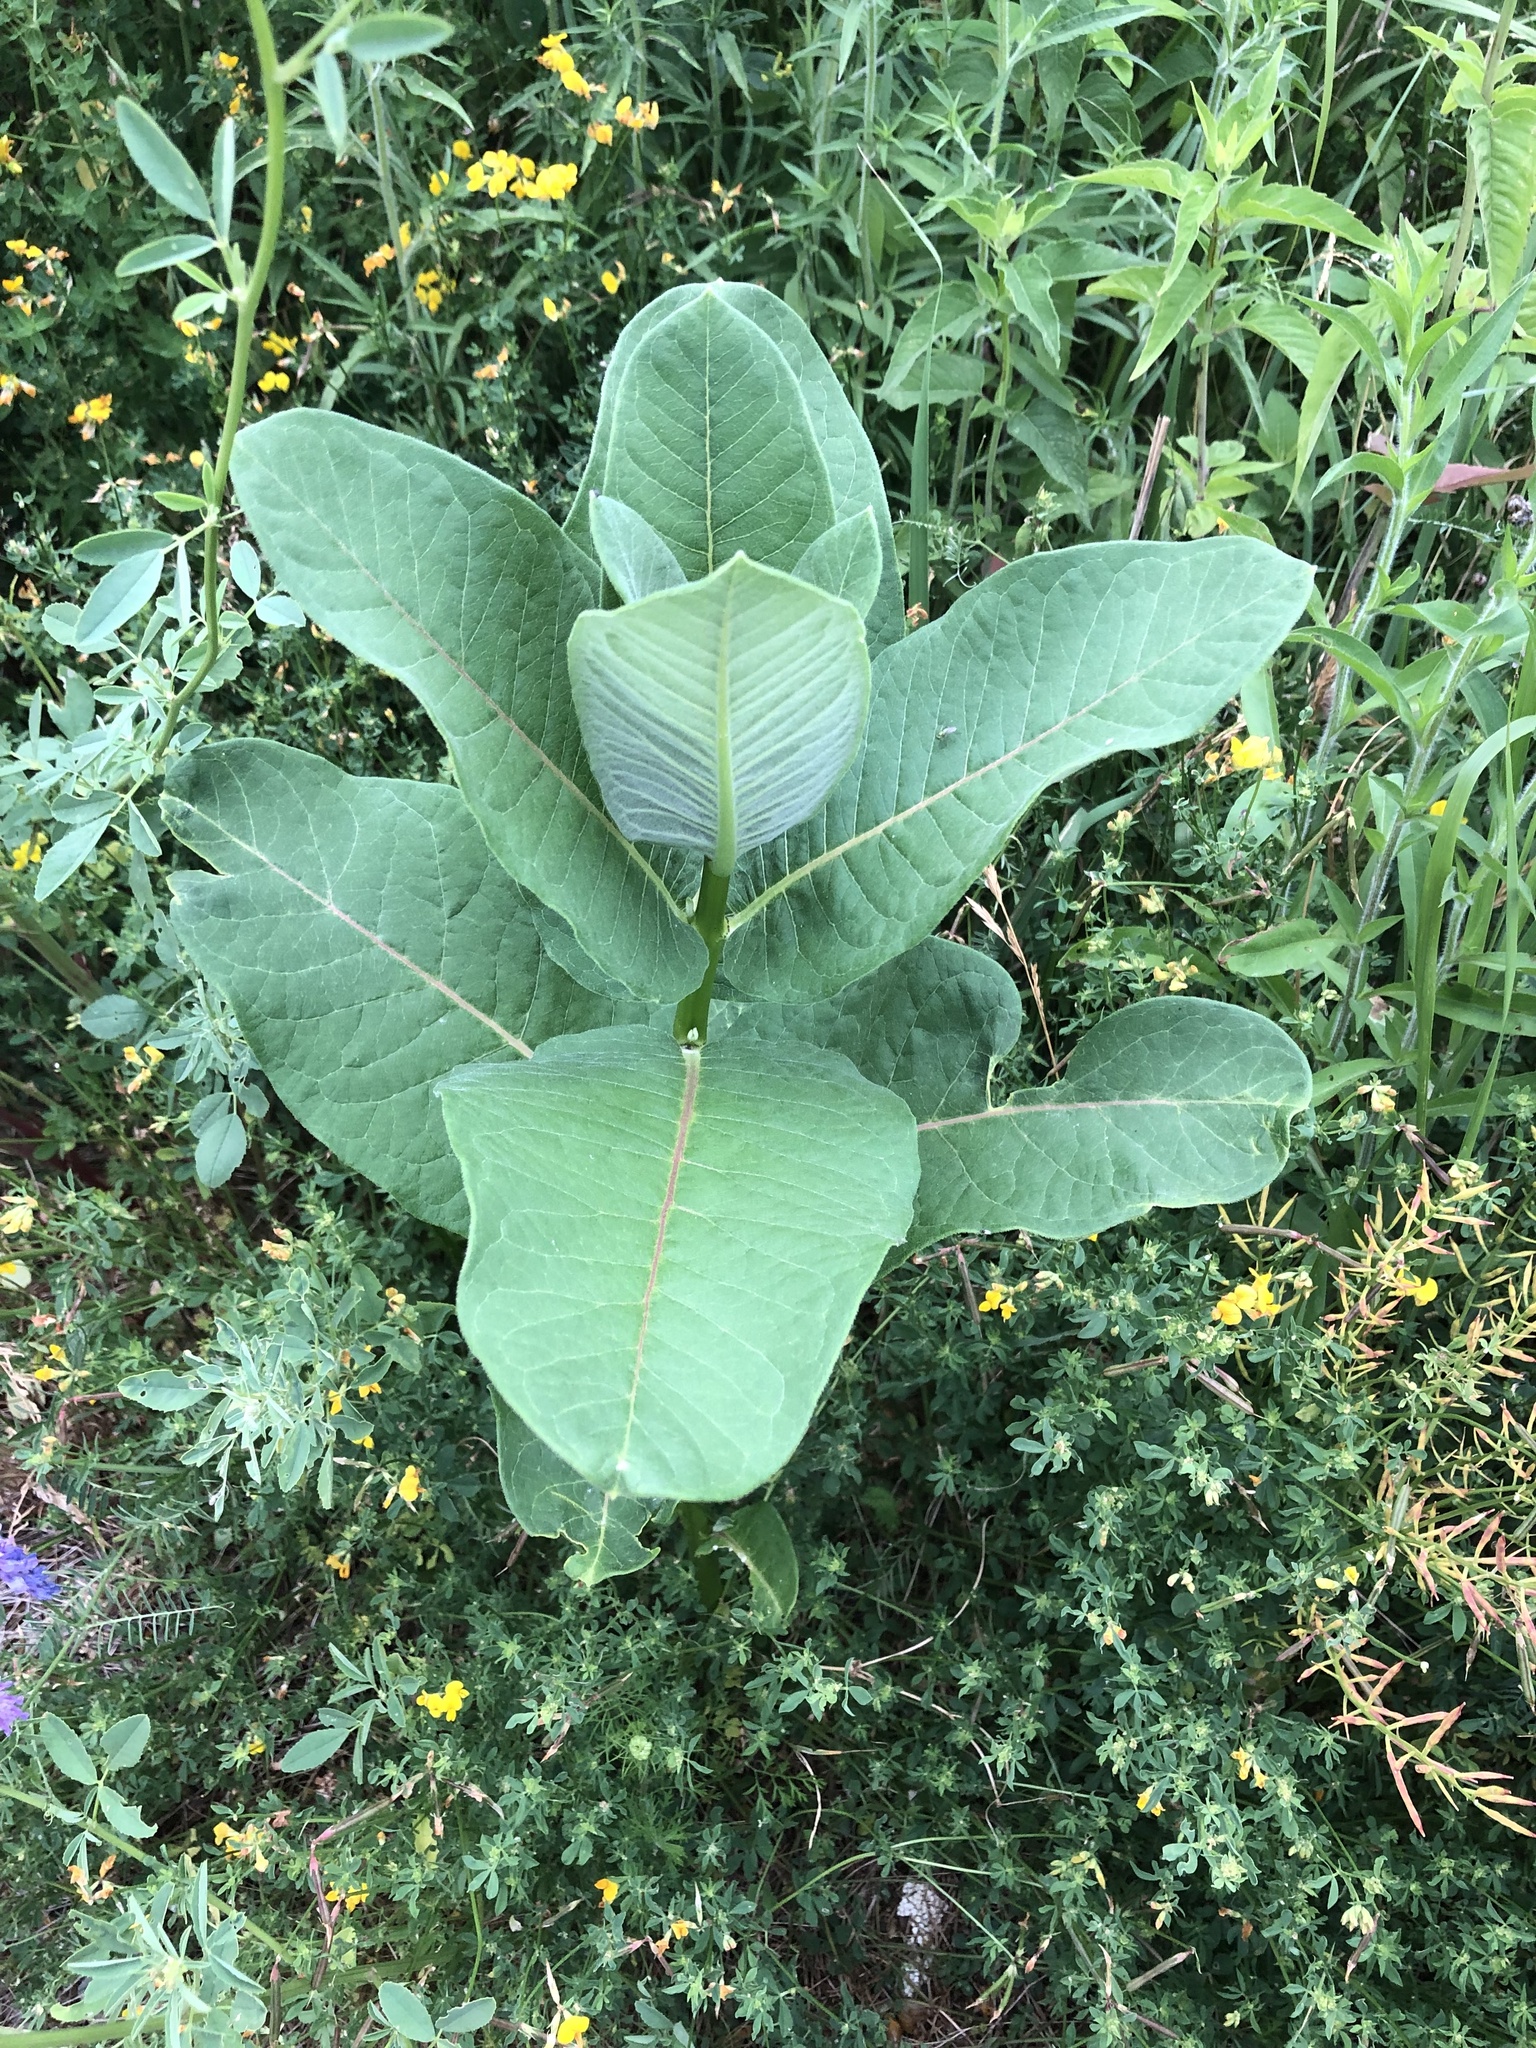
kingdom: Plantae
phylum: Tracheophyta
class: Magnoliopsida
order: Gentianales
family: Apocynaceae
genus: Asclepias
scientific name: Asclepias syriaca
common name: Common milkweed
